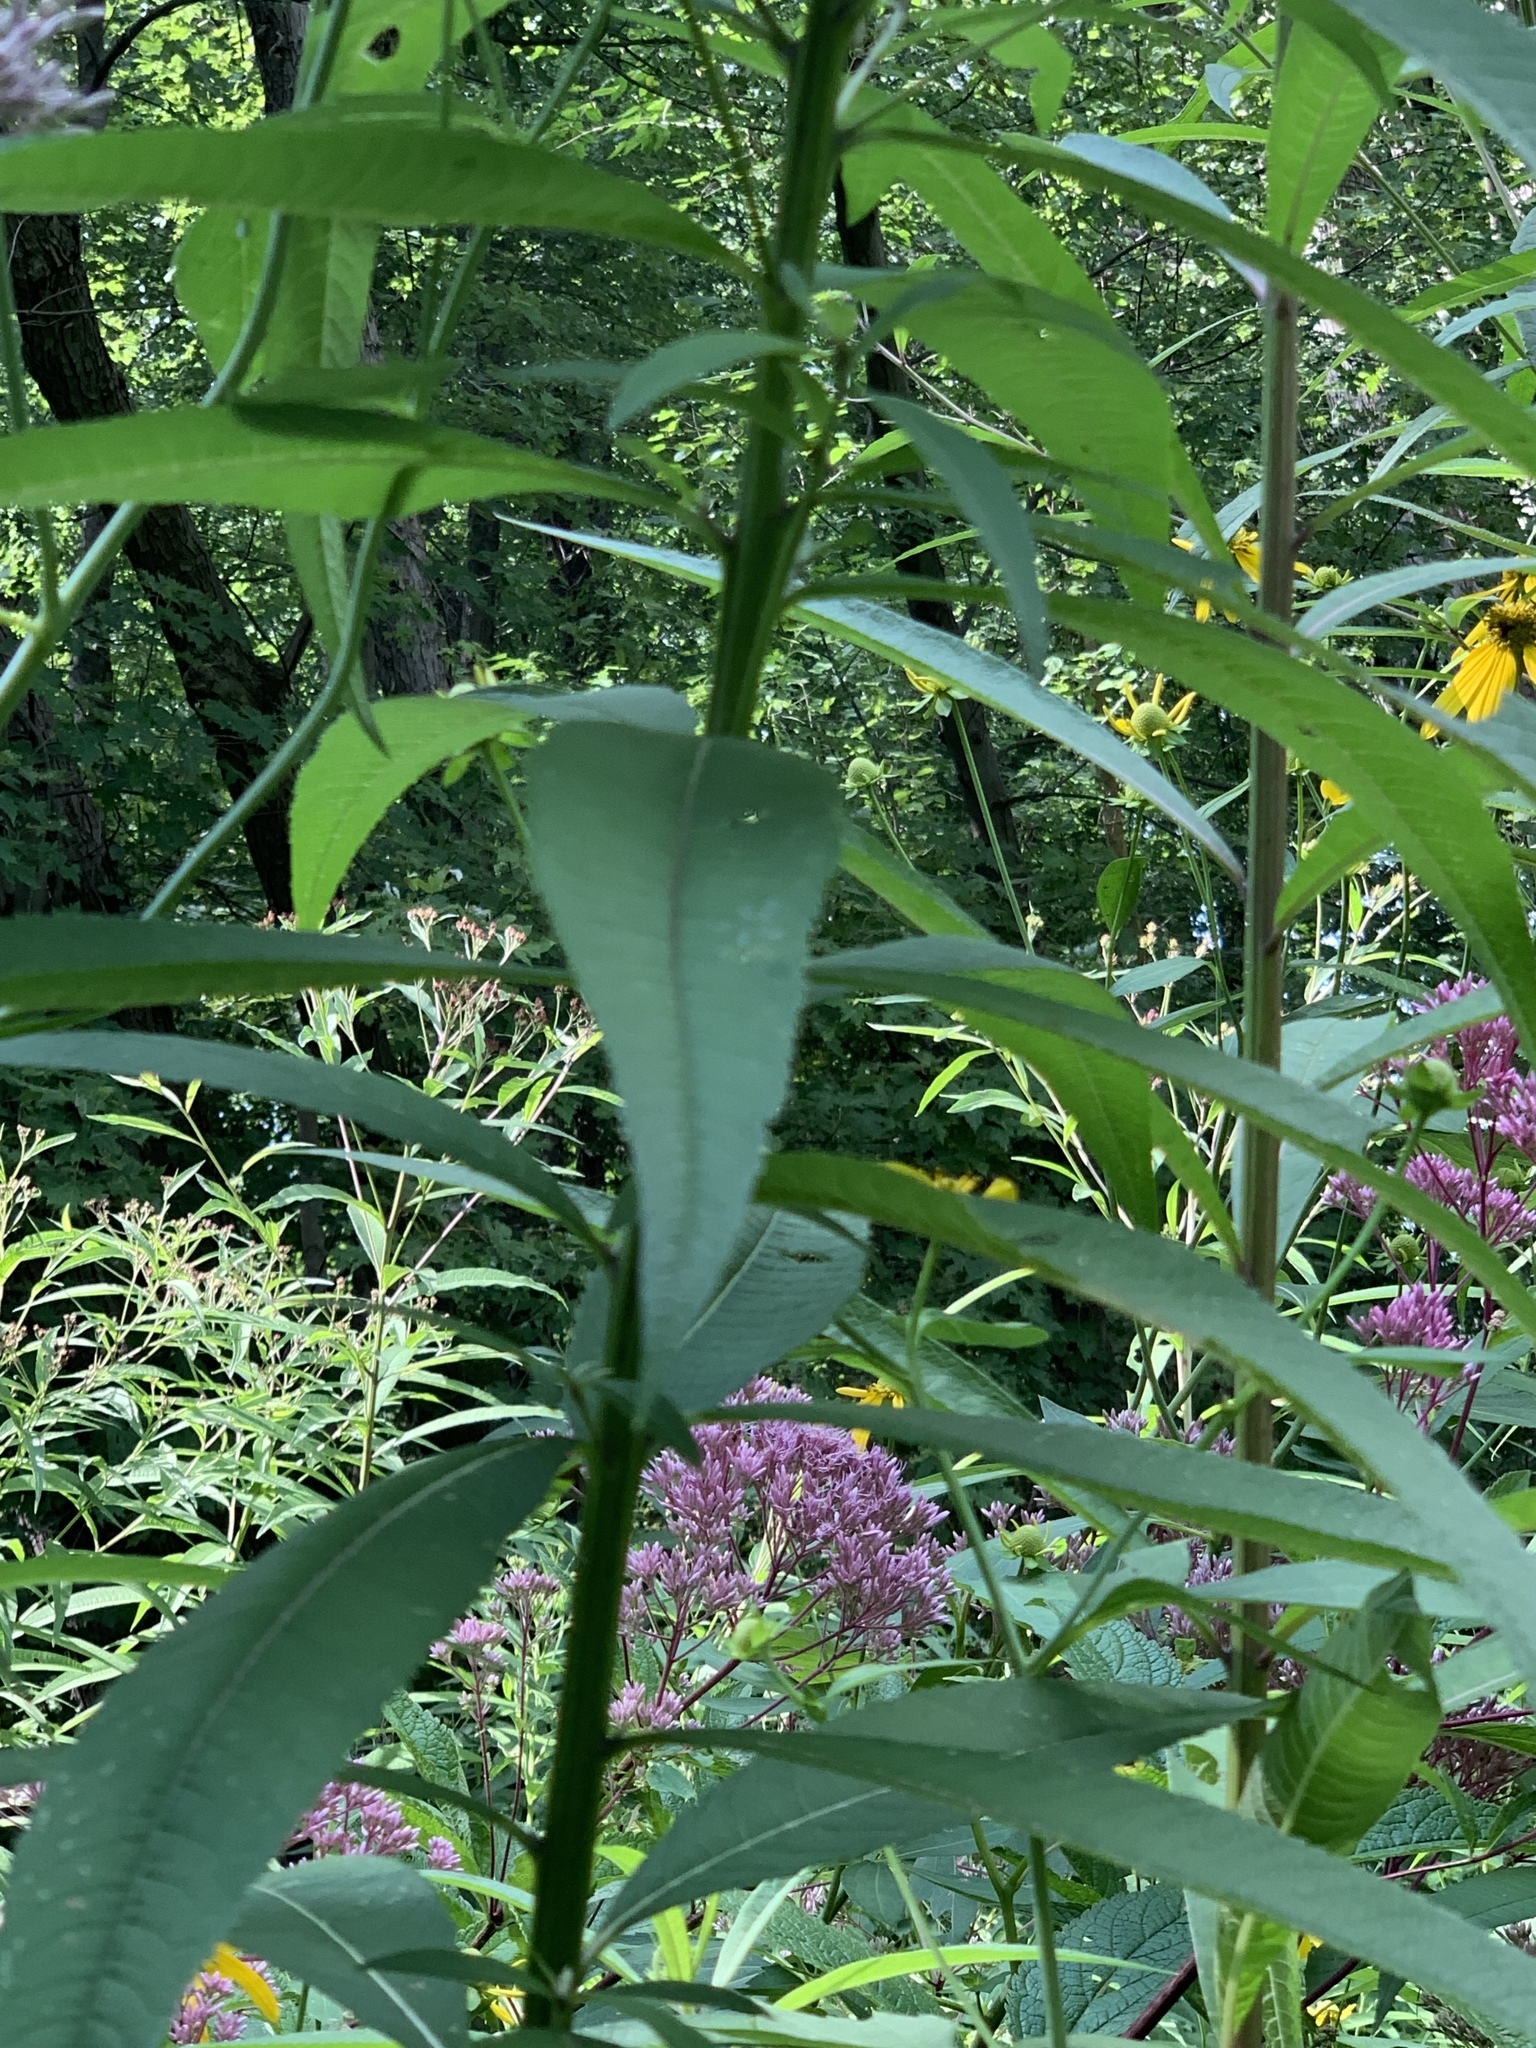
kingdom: Plantae
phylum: Tracheophyta
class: Magnoliopsida
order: Asterales
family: Asteraceae
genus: Rudbeckia
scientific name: Rudbeckia laciniata
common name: Coneflower
